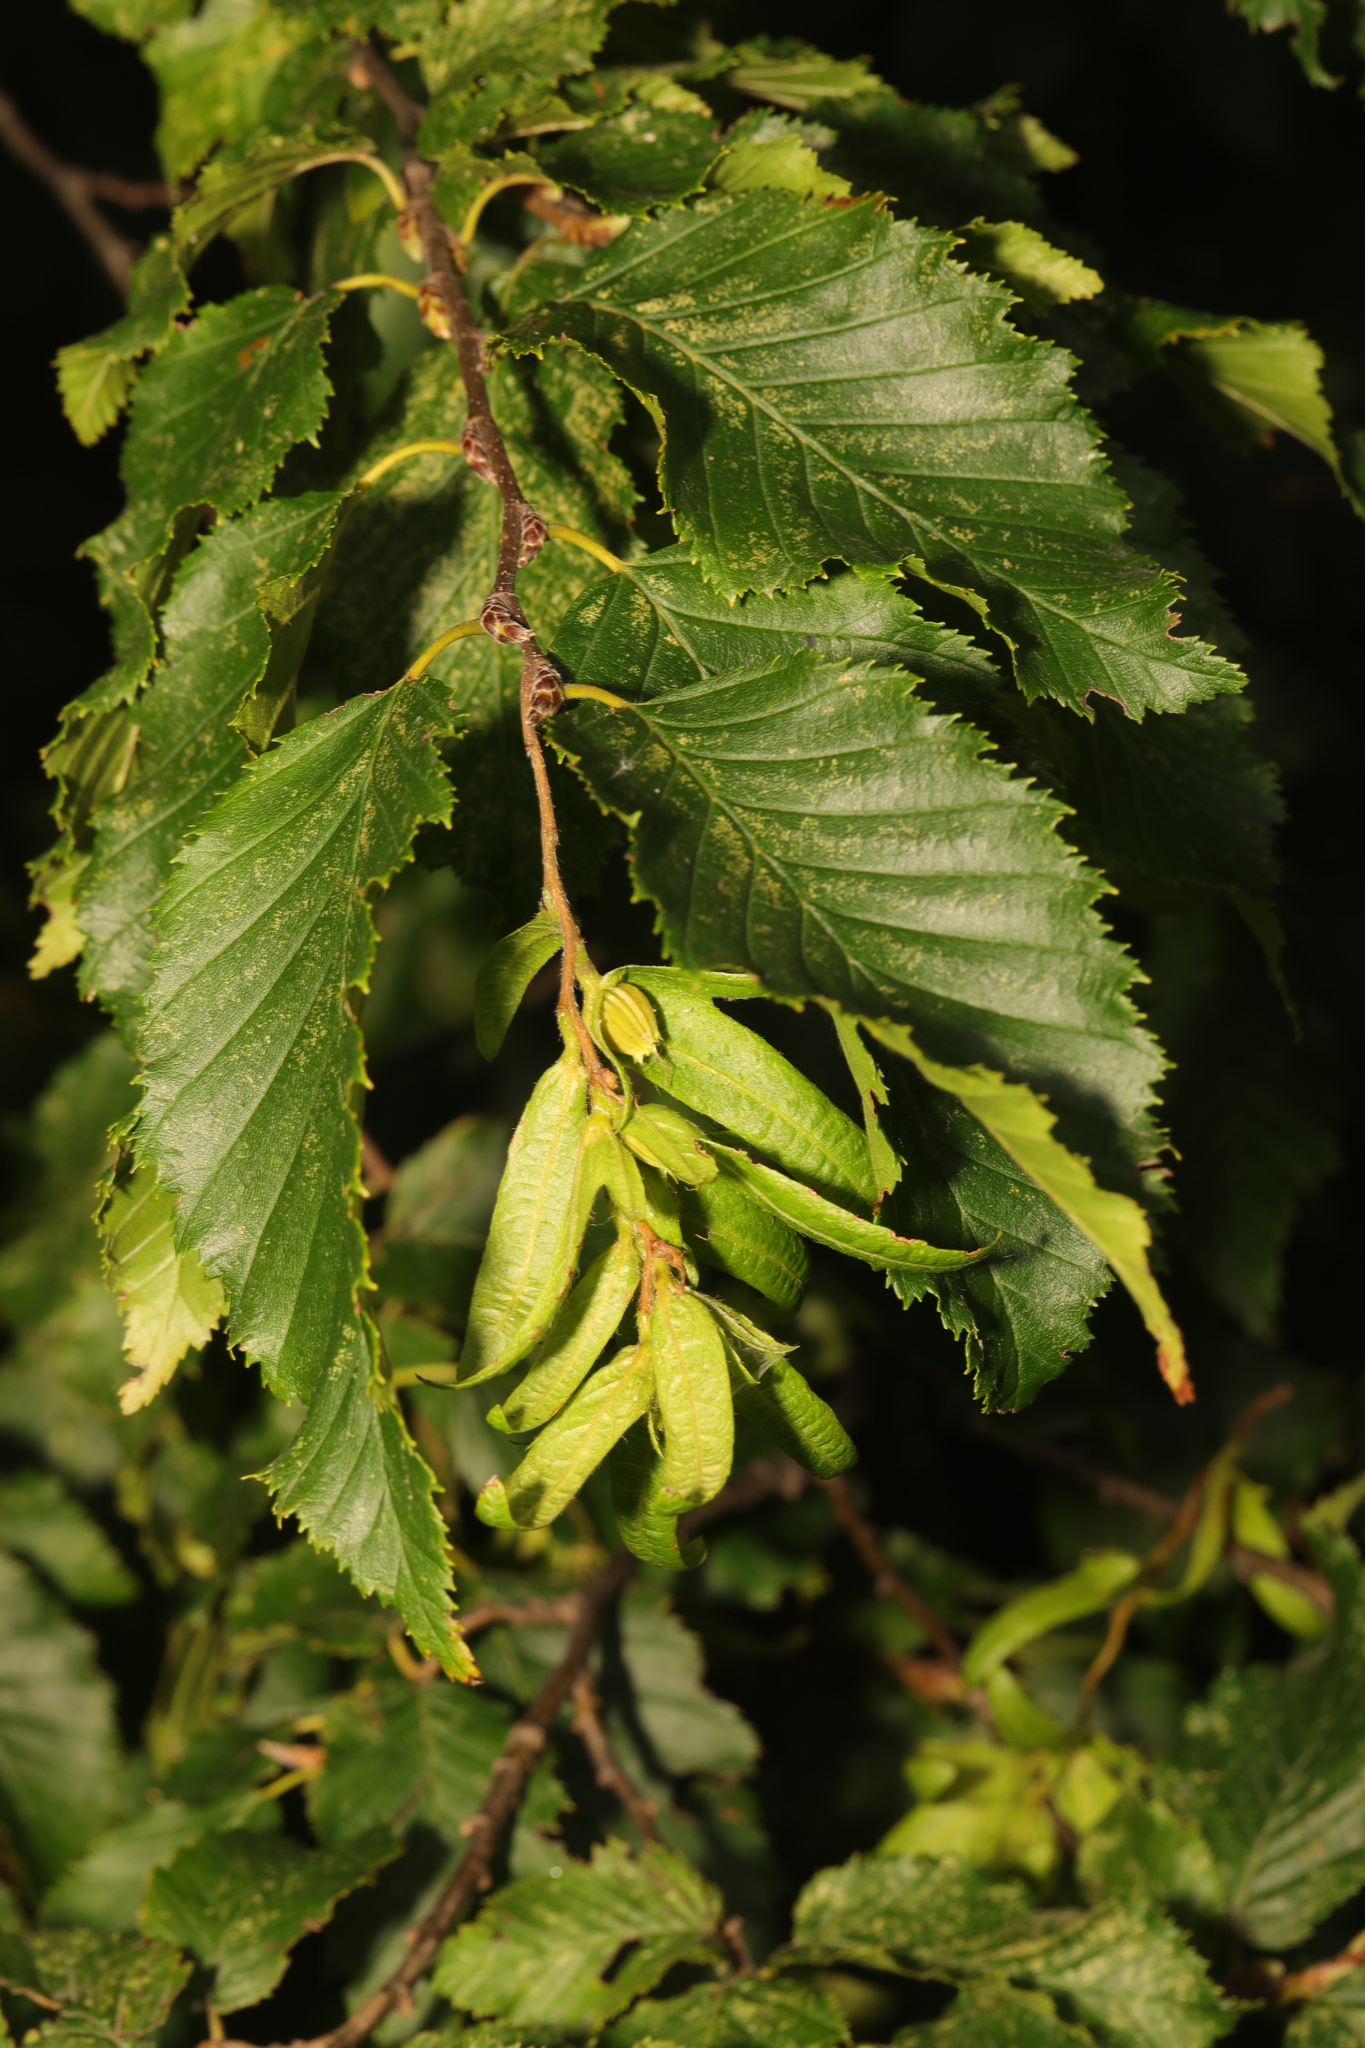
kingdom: Plantae
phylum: Tracheophyta
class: Magnoliopsida
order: Fagales
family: Betulaceae
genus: Carpinus
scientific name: Carpinus betulus
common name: Hornbeam
